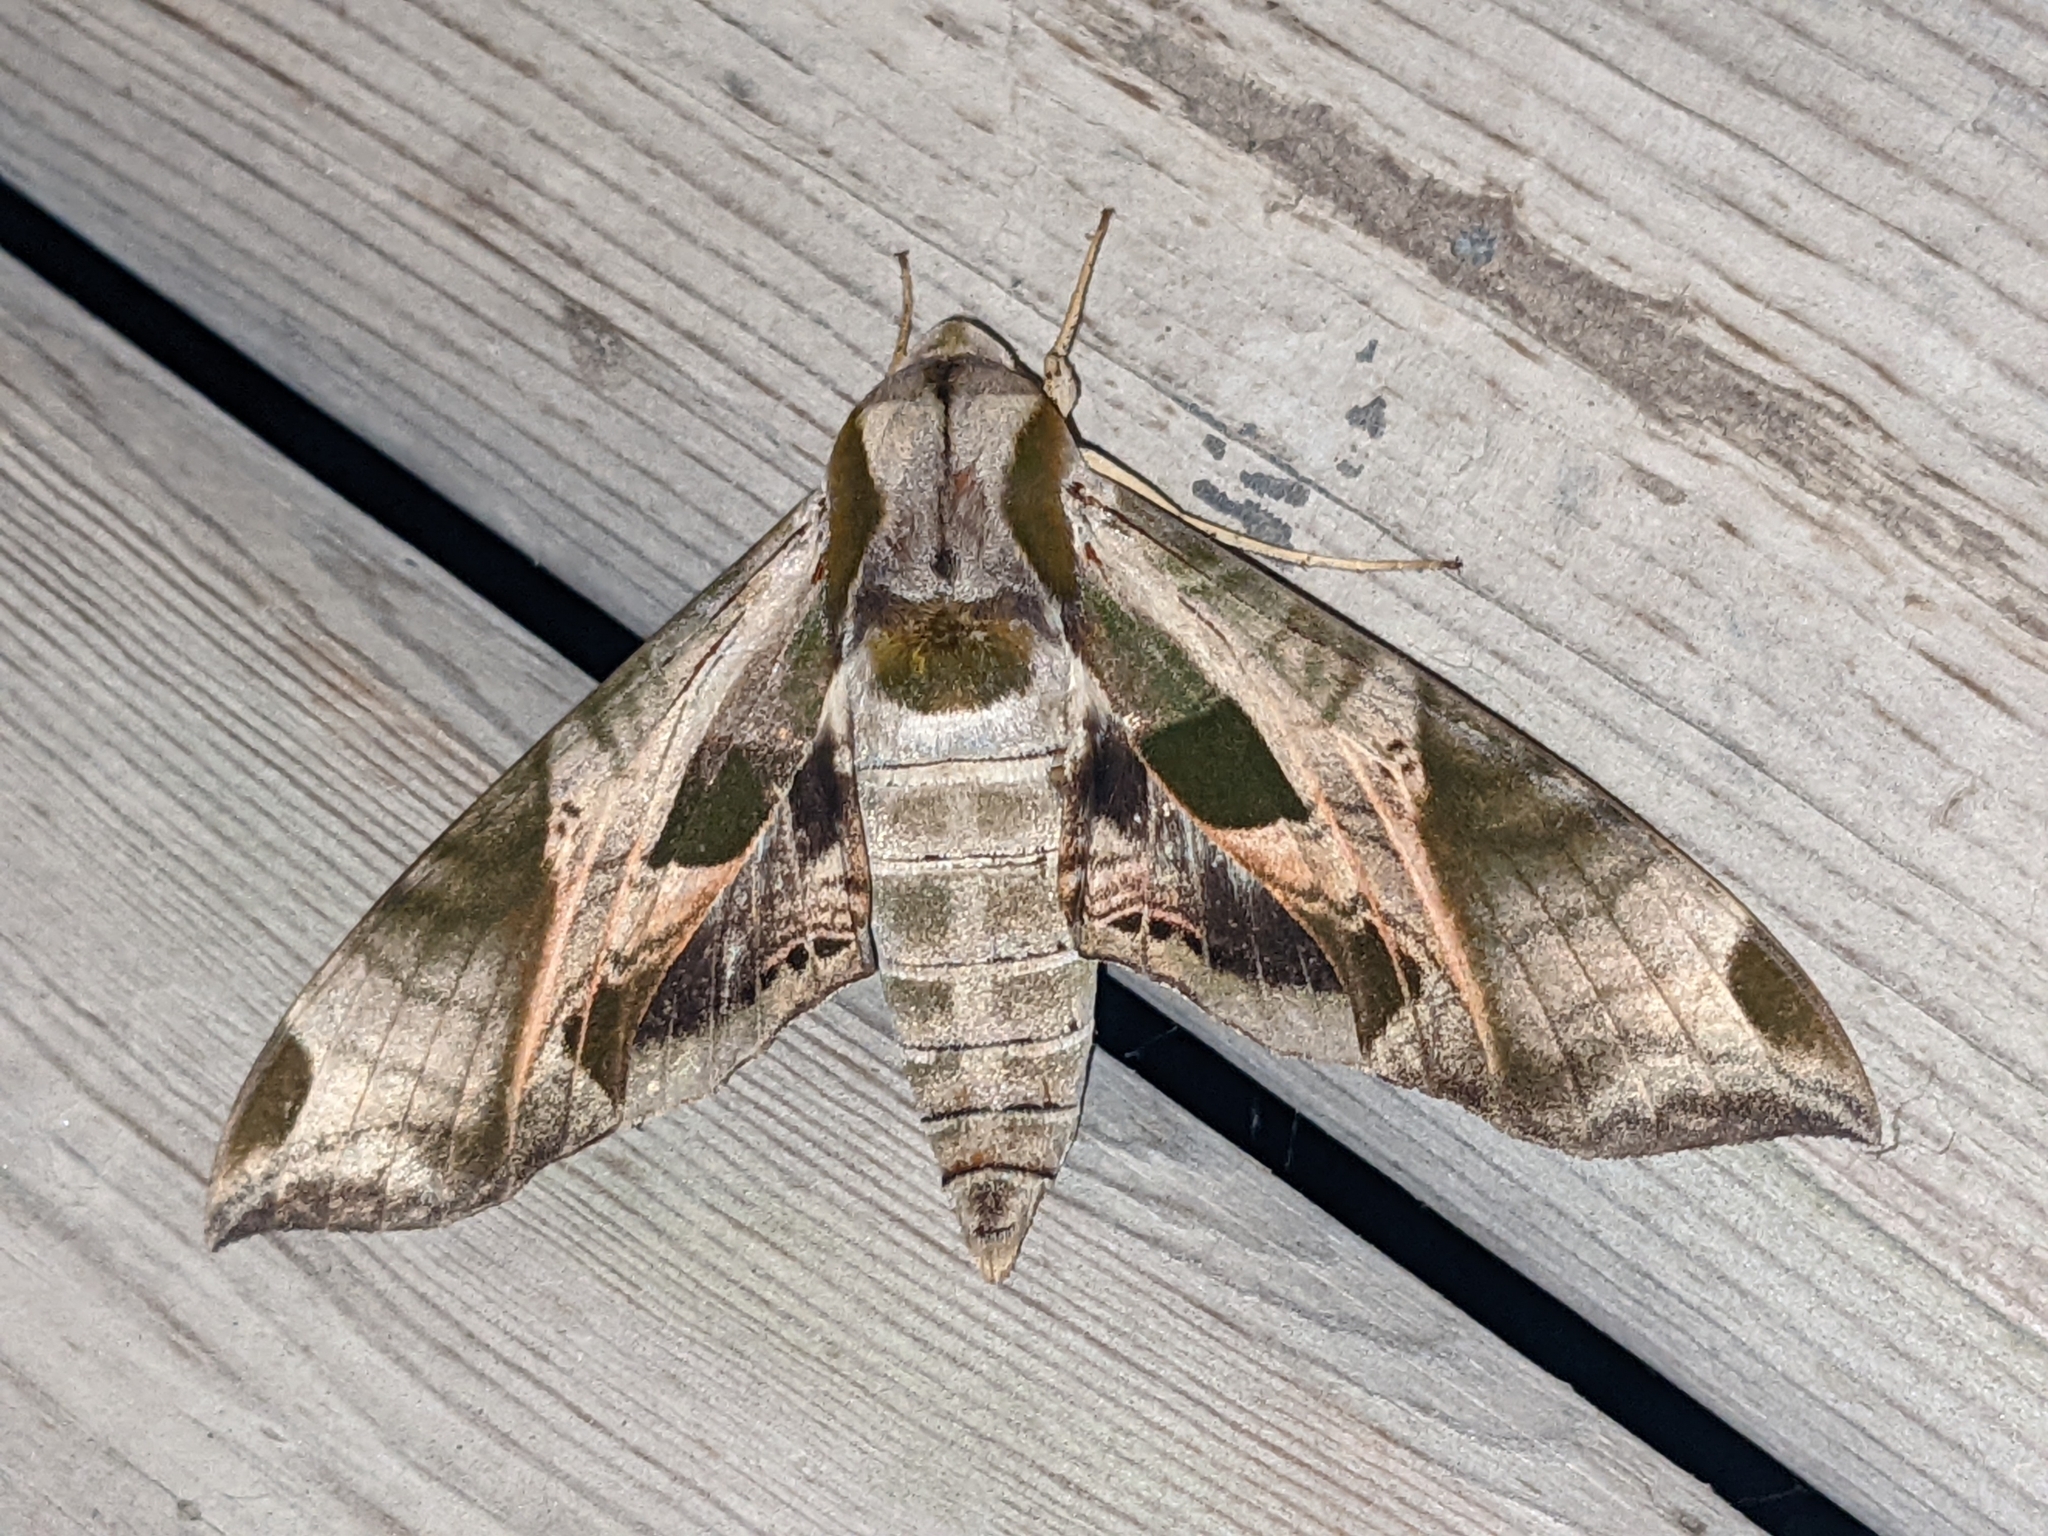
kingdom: Animalia
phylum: Arthropoda
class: Insecta
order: Lepidoptera
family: Sphingidae
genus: Eumorpha
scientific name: Eumorpha pandorus
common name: Pandora sphinx
